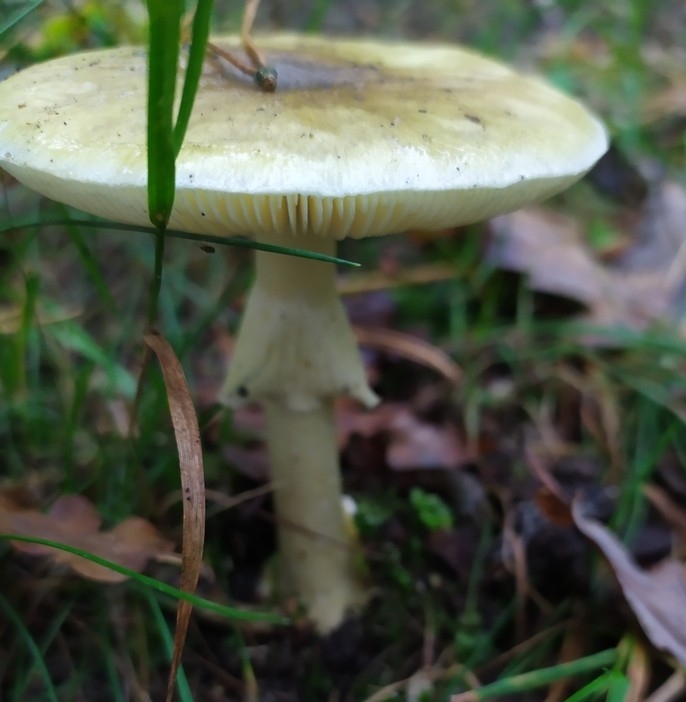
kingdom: Fungi
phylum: Basidiomycota
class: Agaricomycetes
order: Agaricales
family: Amanitaceae
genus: Amanita
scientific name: Amanita phalloides
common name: Death cap
